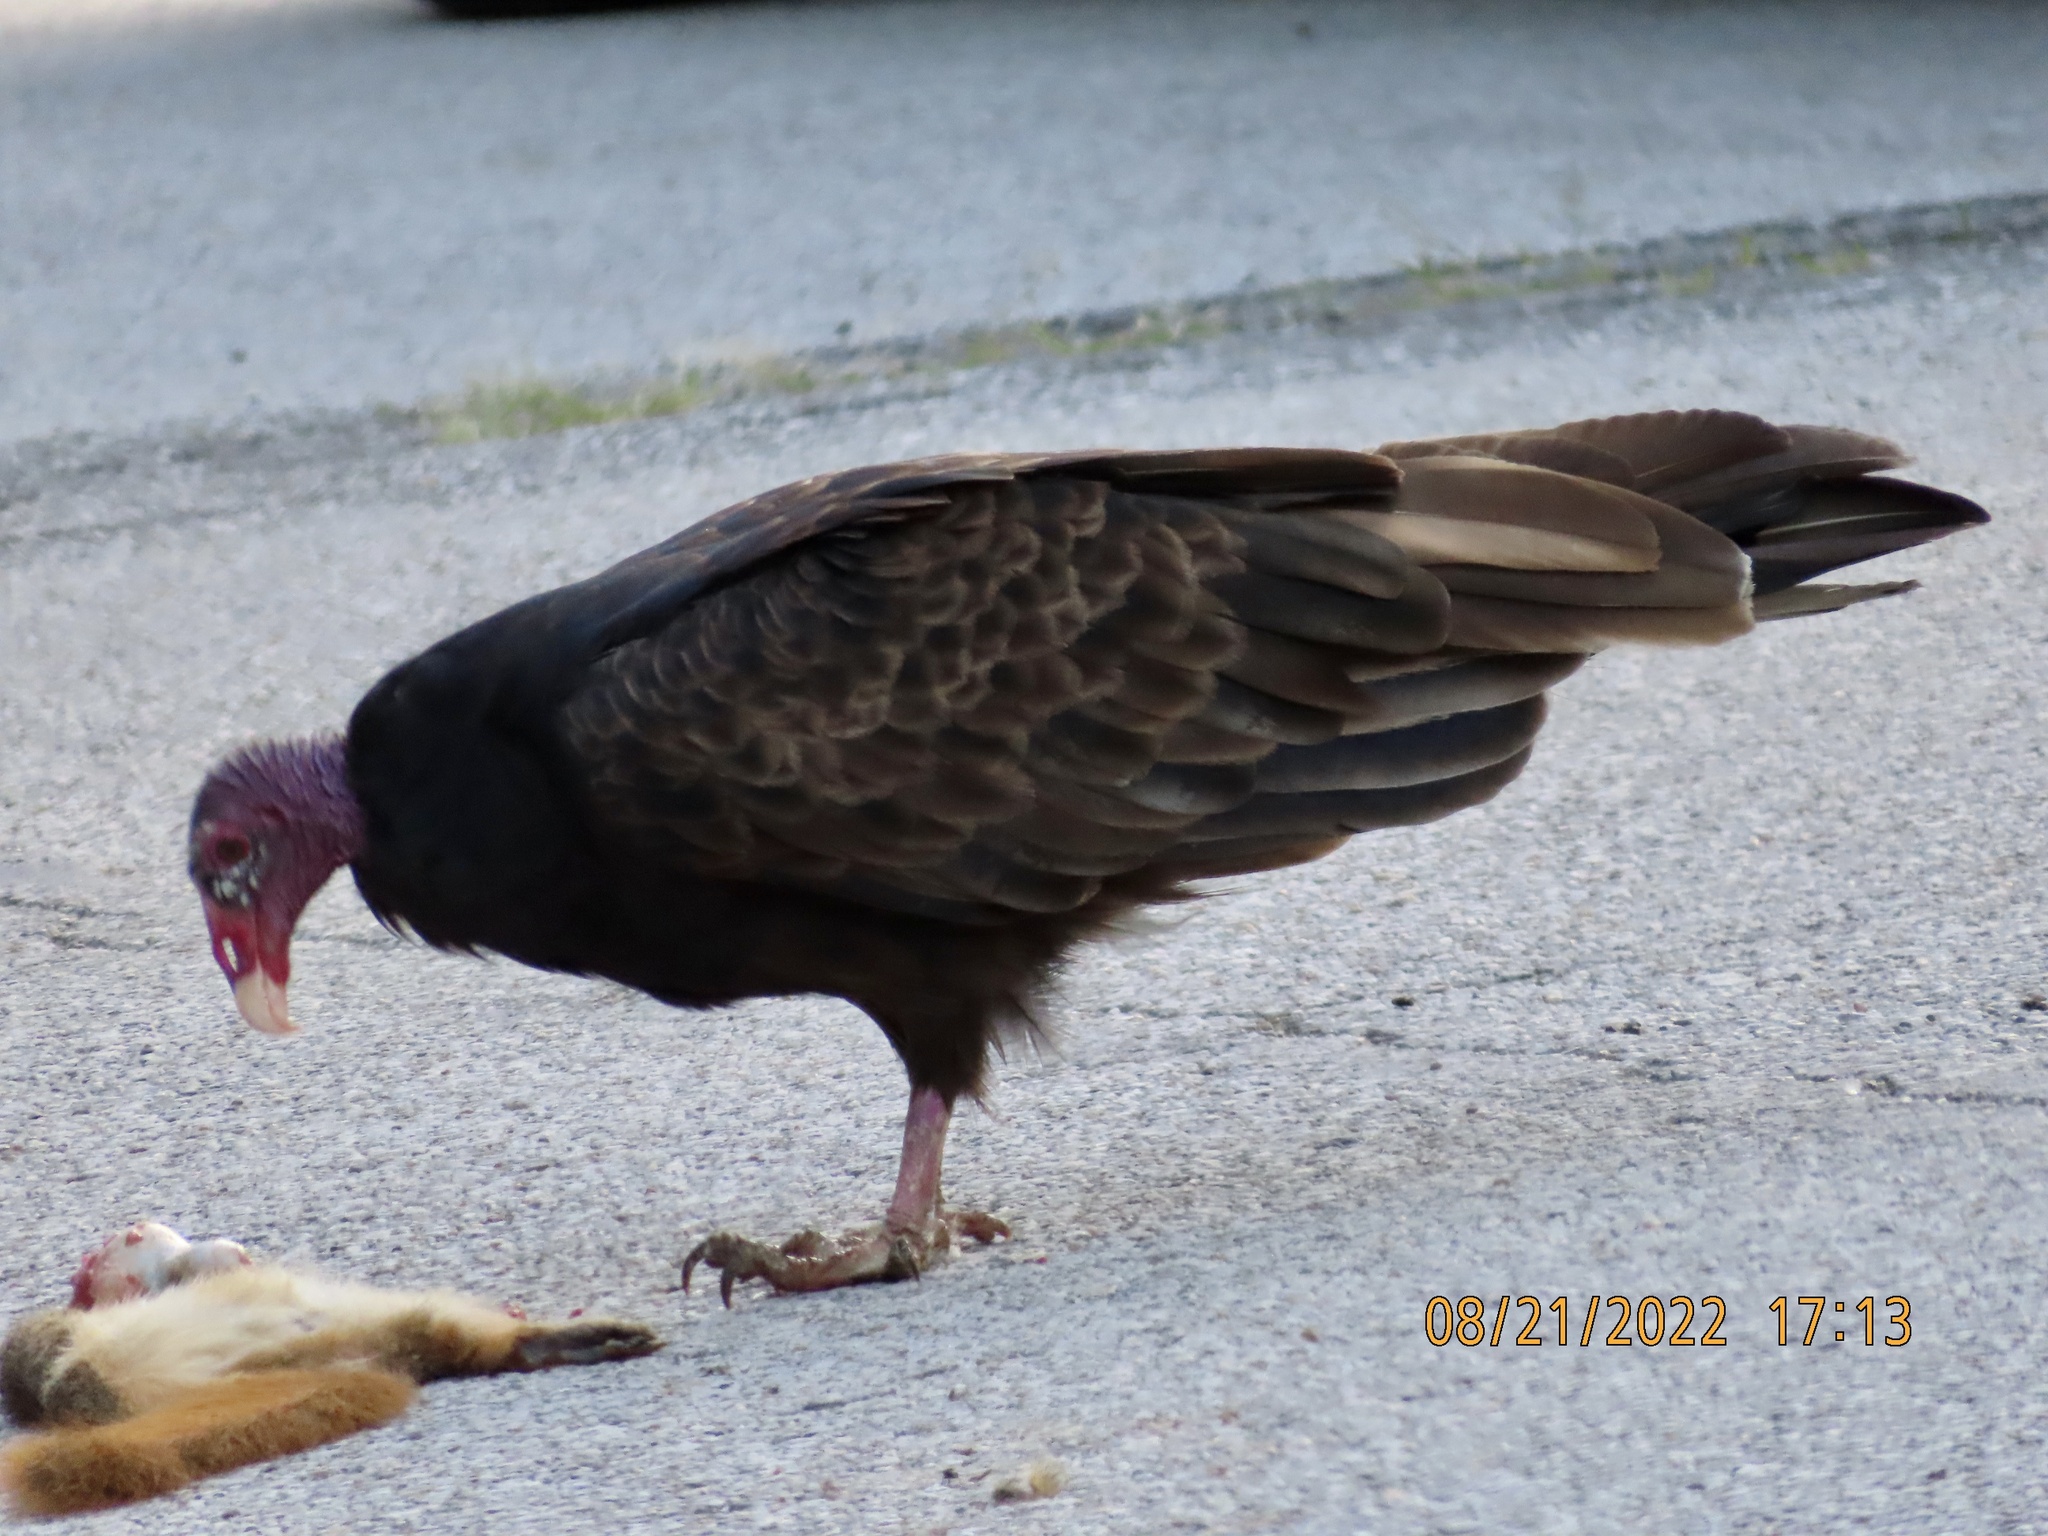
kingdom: Animalia
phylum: Chordata
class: Aves
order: Accipitriformes
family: Cathartidae
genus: Cathartes
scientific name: Cathartes aura
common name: Turkey vulture
